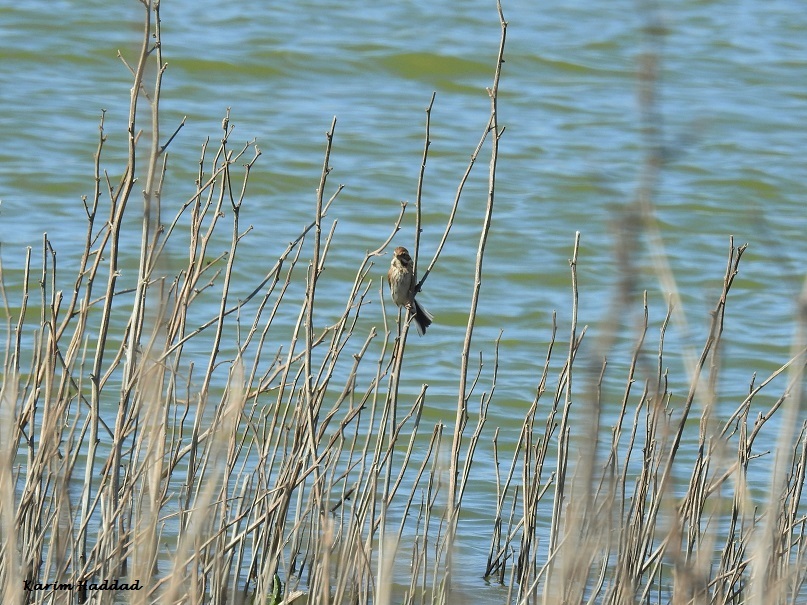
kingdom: Animalia
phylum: Chordata
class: Aves
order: Passeriformes
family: Emberizidae
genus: Emberiza
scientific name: Emberiza schoeniclus
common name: Reed bunting
